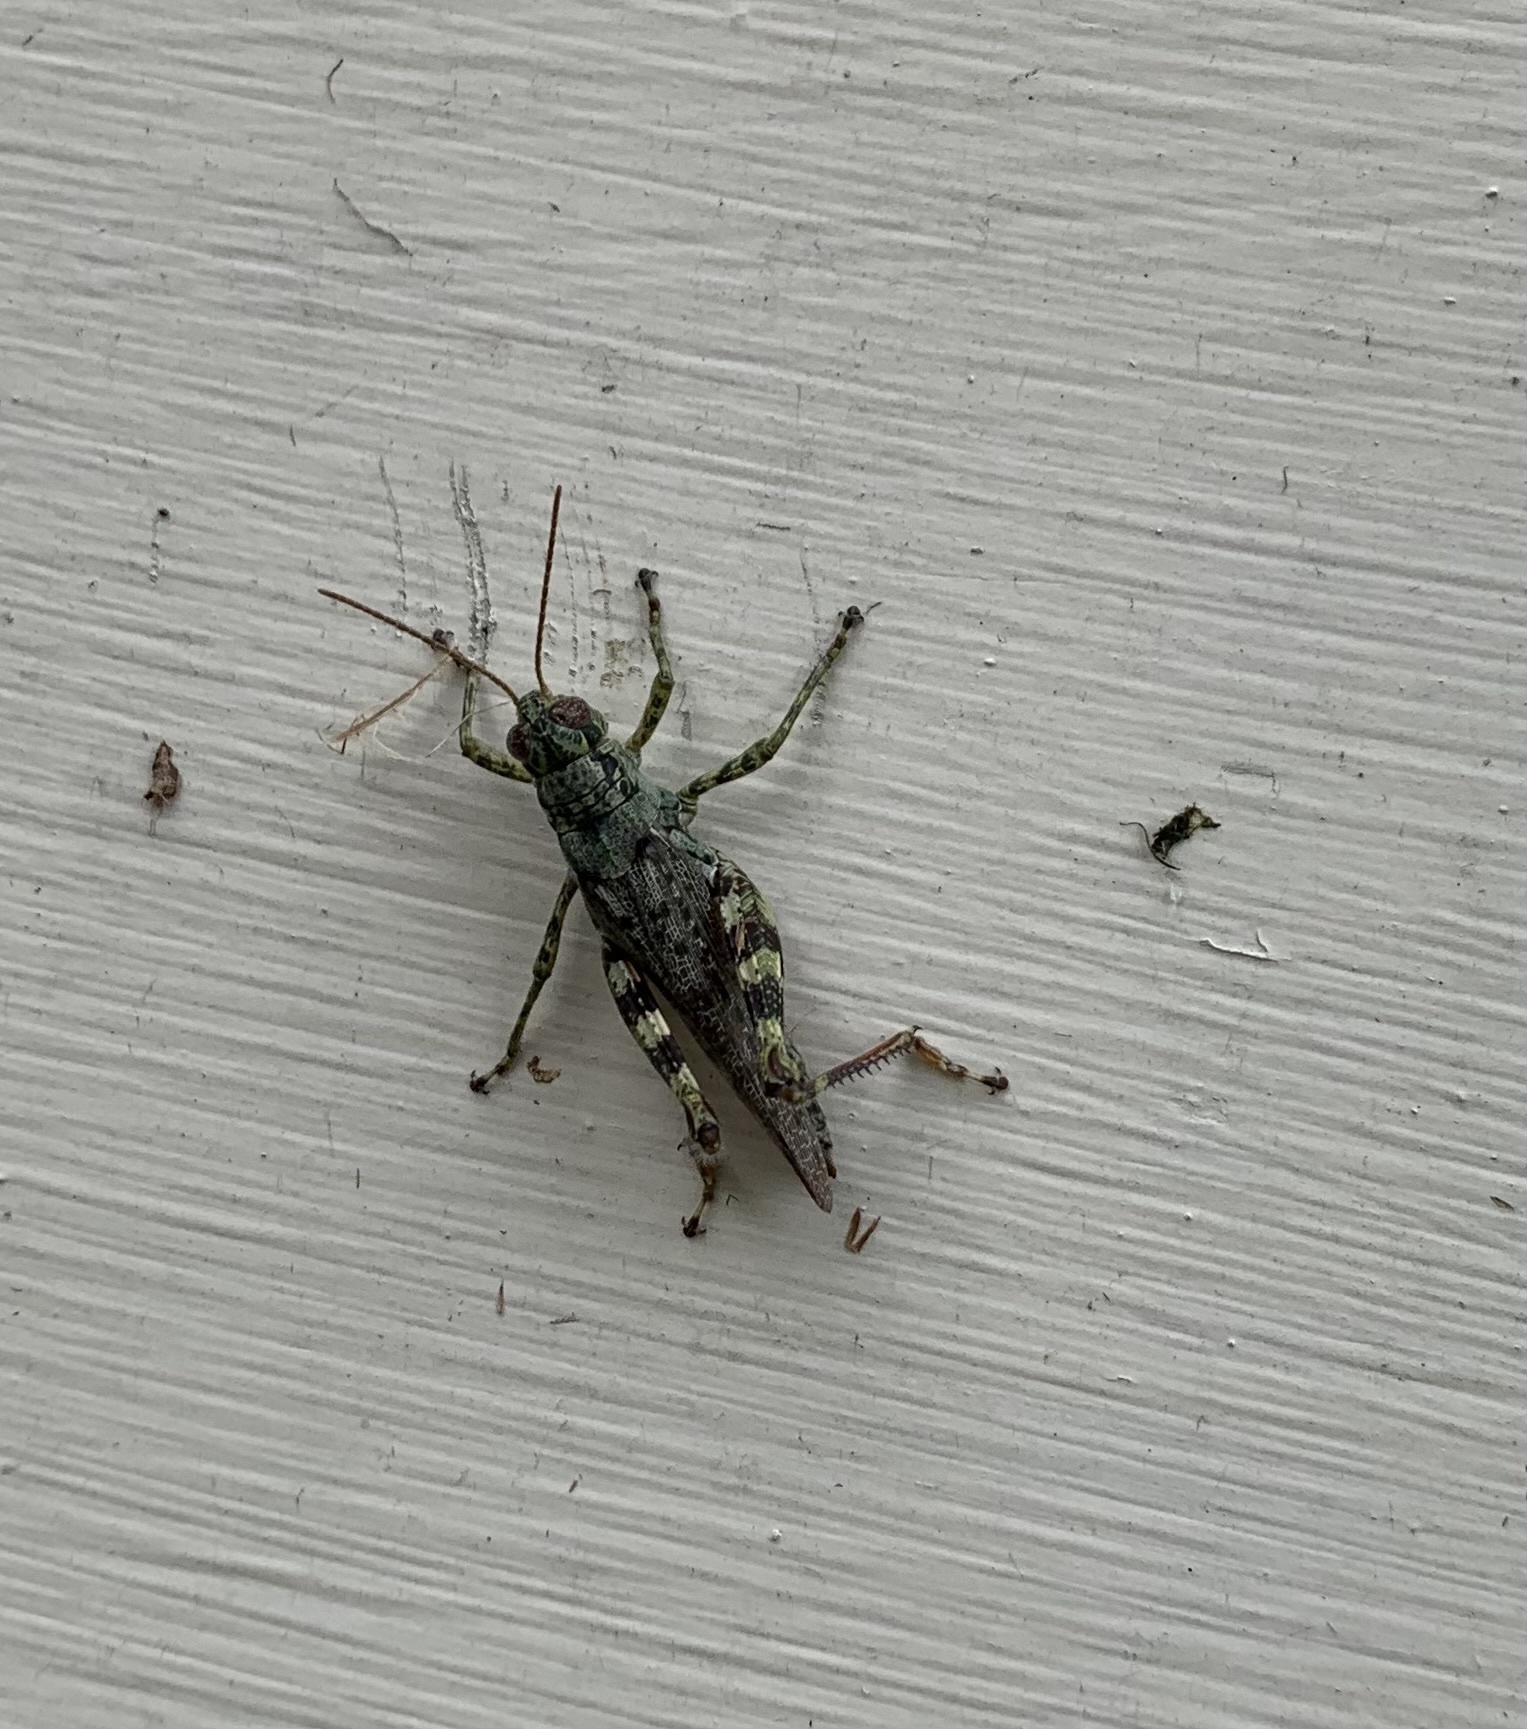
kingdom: Animalia
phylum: Arthropoda
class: Insecta
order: Orthoptera
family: Acrididae
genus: Melanoplus
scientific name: Melanoplus punctulatus
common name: Pine-tree spur-throat grasshopper
